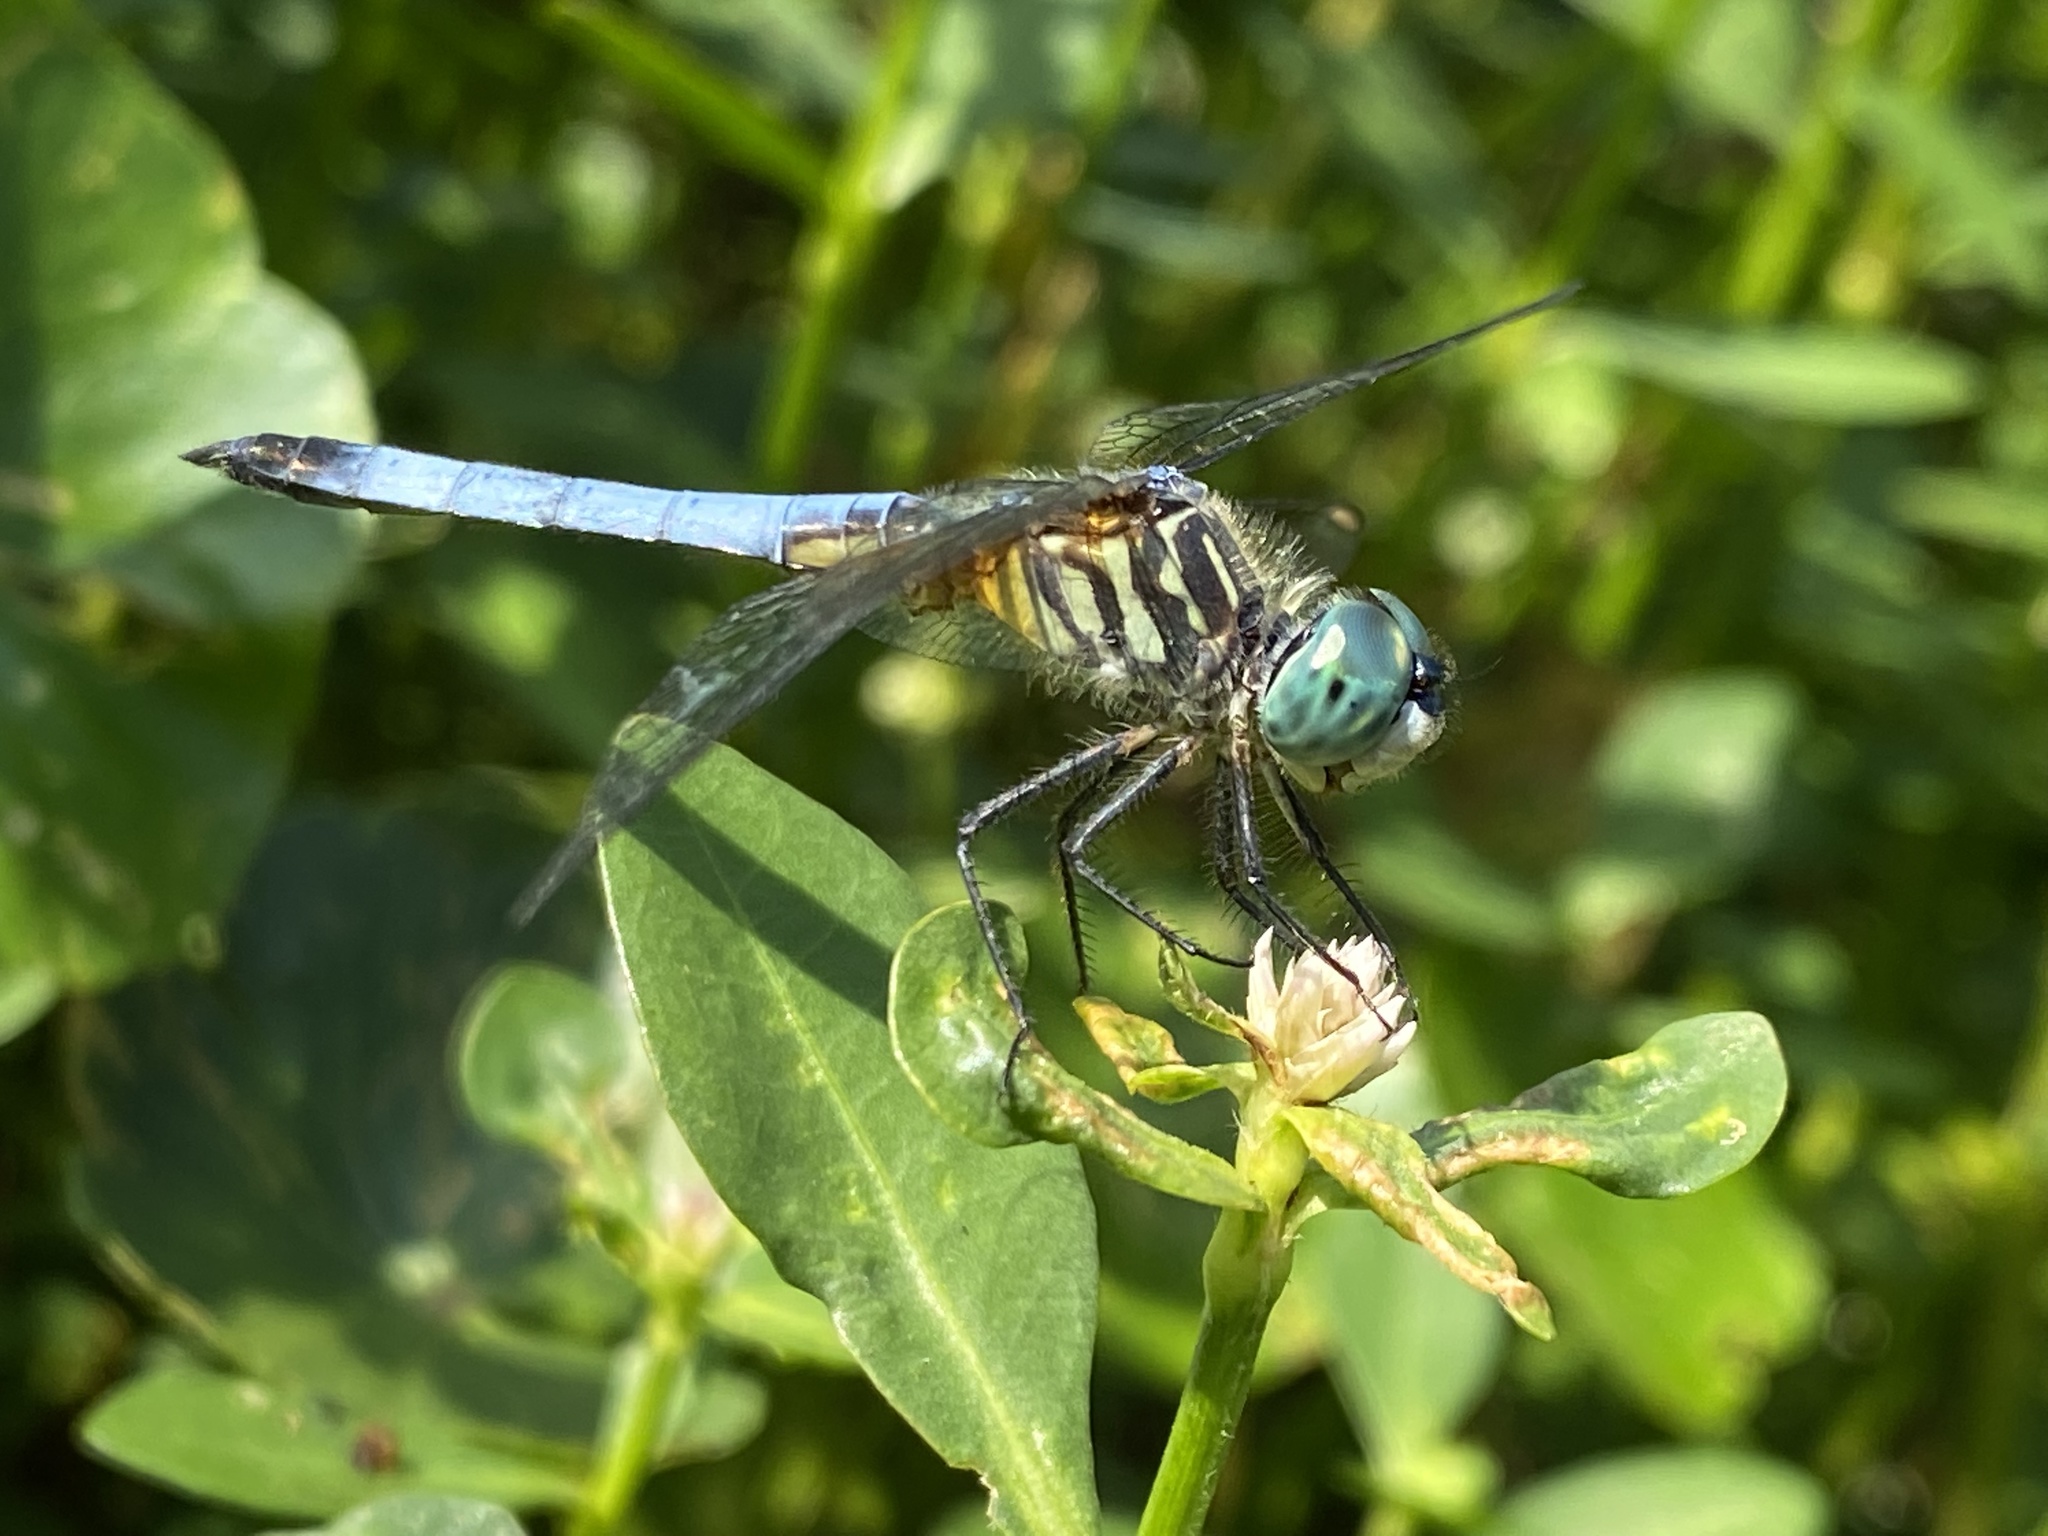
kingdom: Animalia
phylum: Arthropoda
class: Insecta
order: Odonata
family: Libellulidae
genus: Pachydiplax
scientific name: Pachydiplax longipennis
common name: Blue dasher
